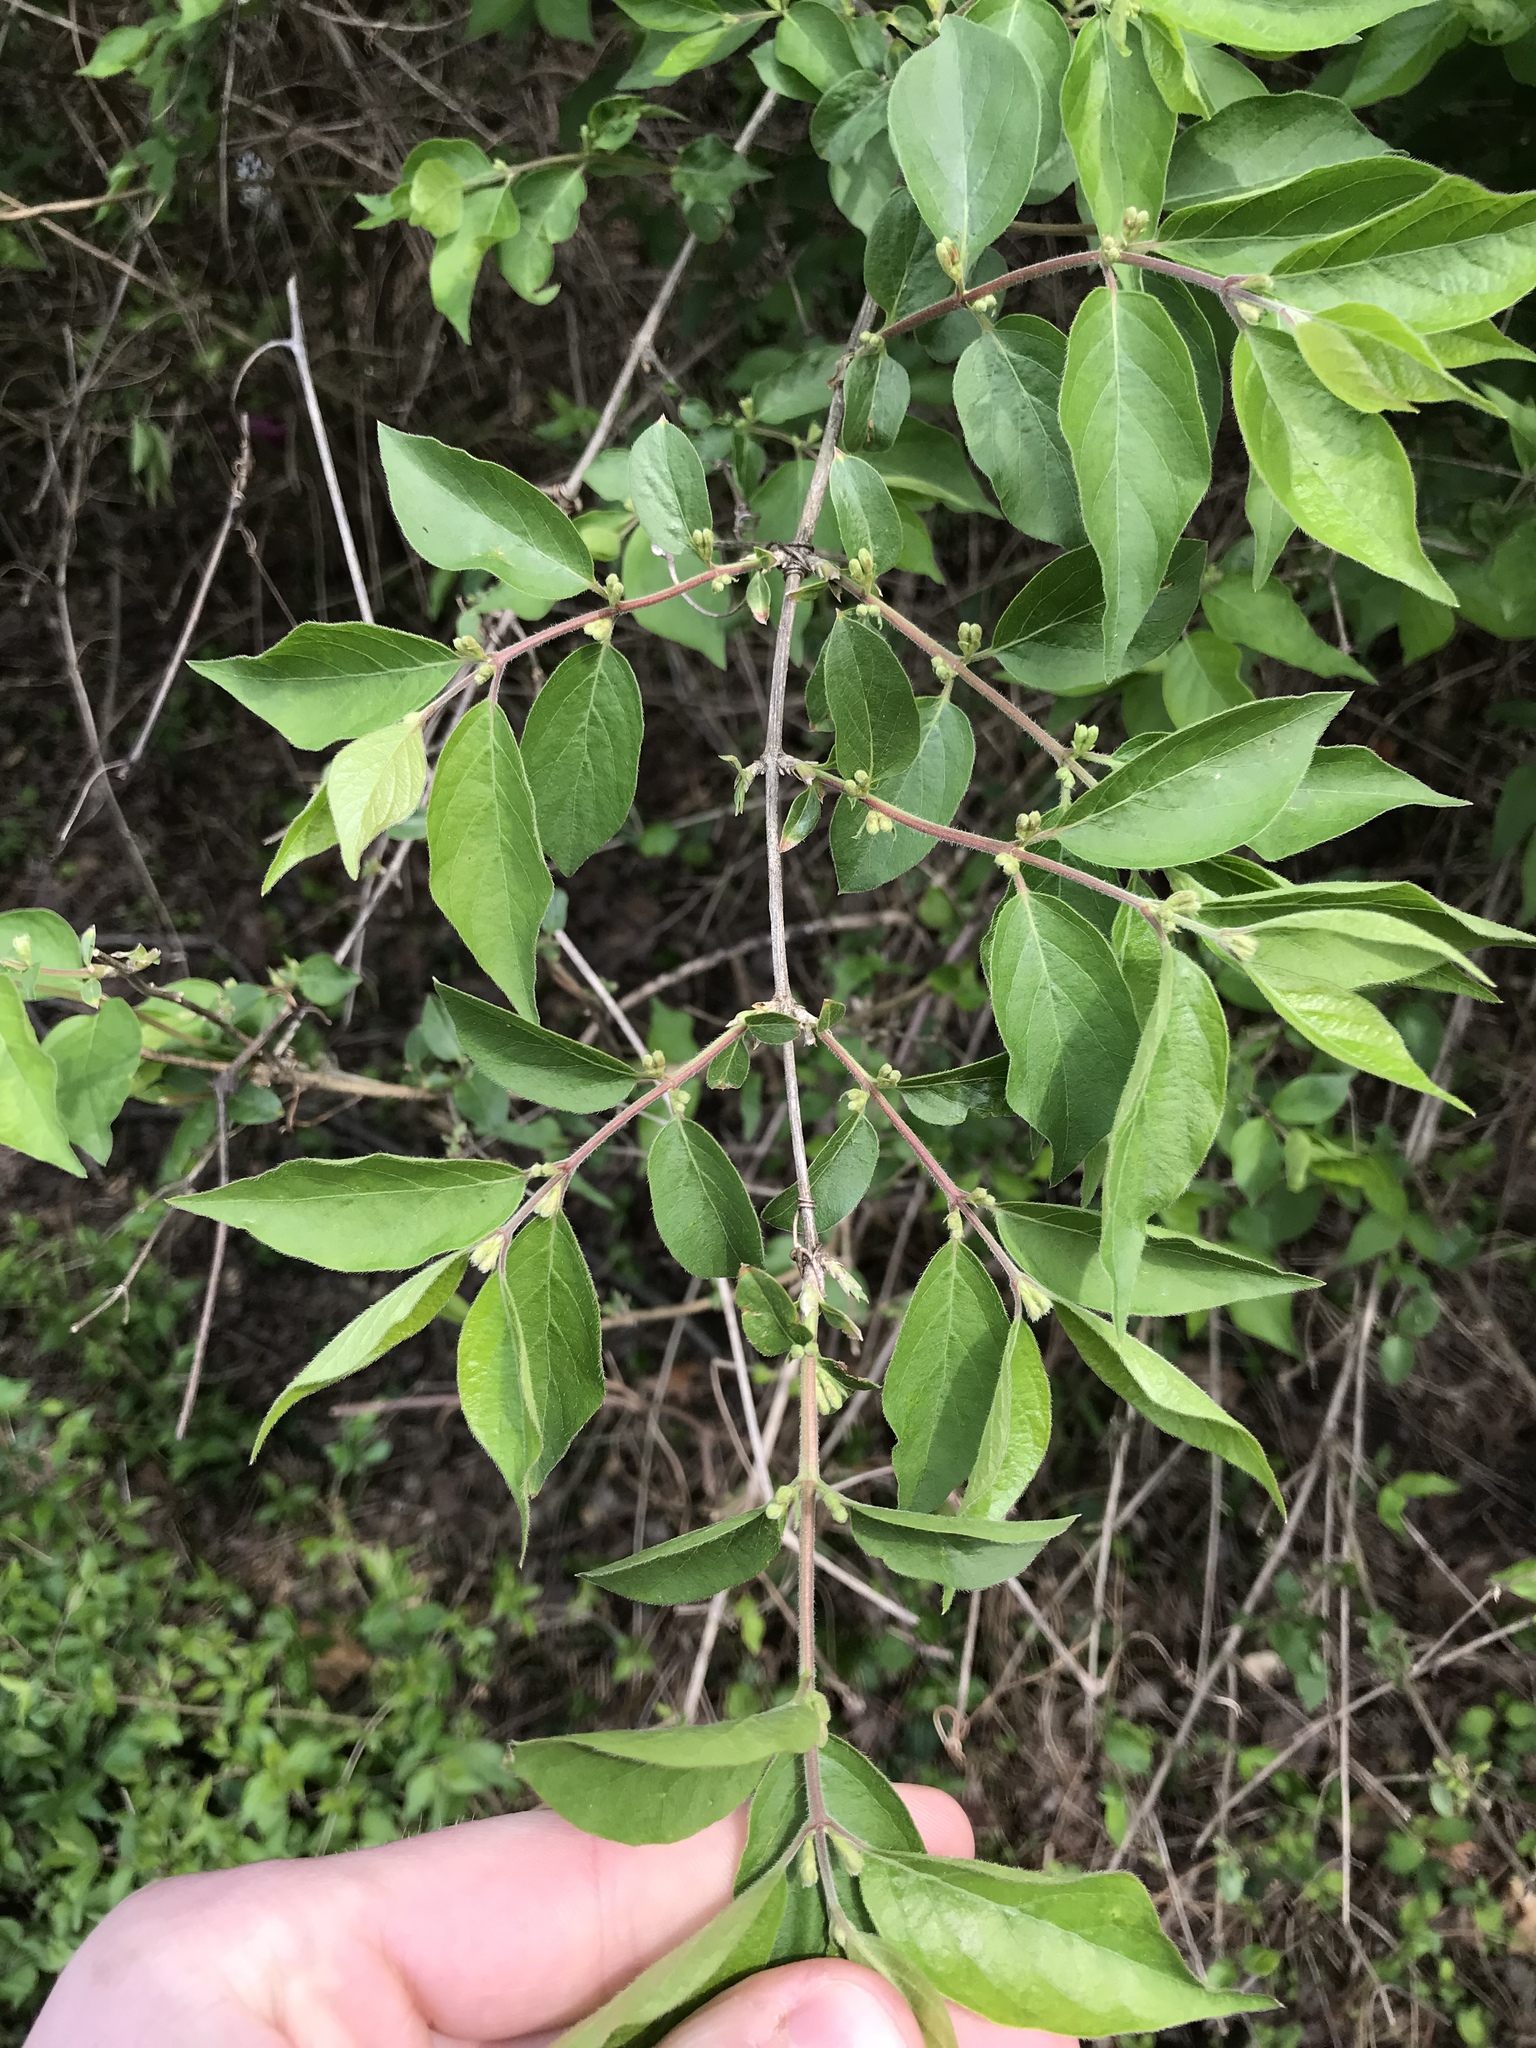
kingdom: Plantae
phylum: Tracheophyta
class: Magnoliopsida
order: Dipsacales
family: Caprifoliaceae
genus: Lonicera
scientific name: Lonicera maackii
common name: Amur honeysuckle
